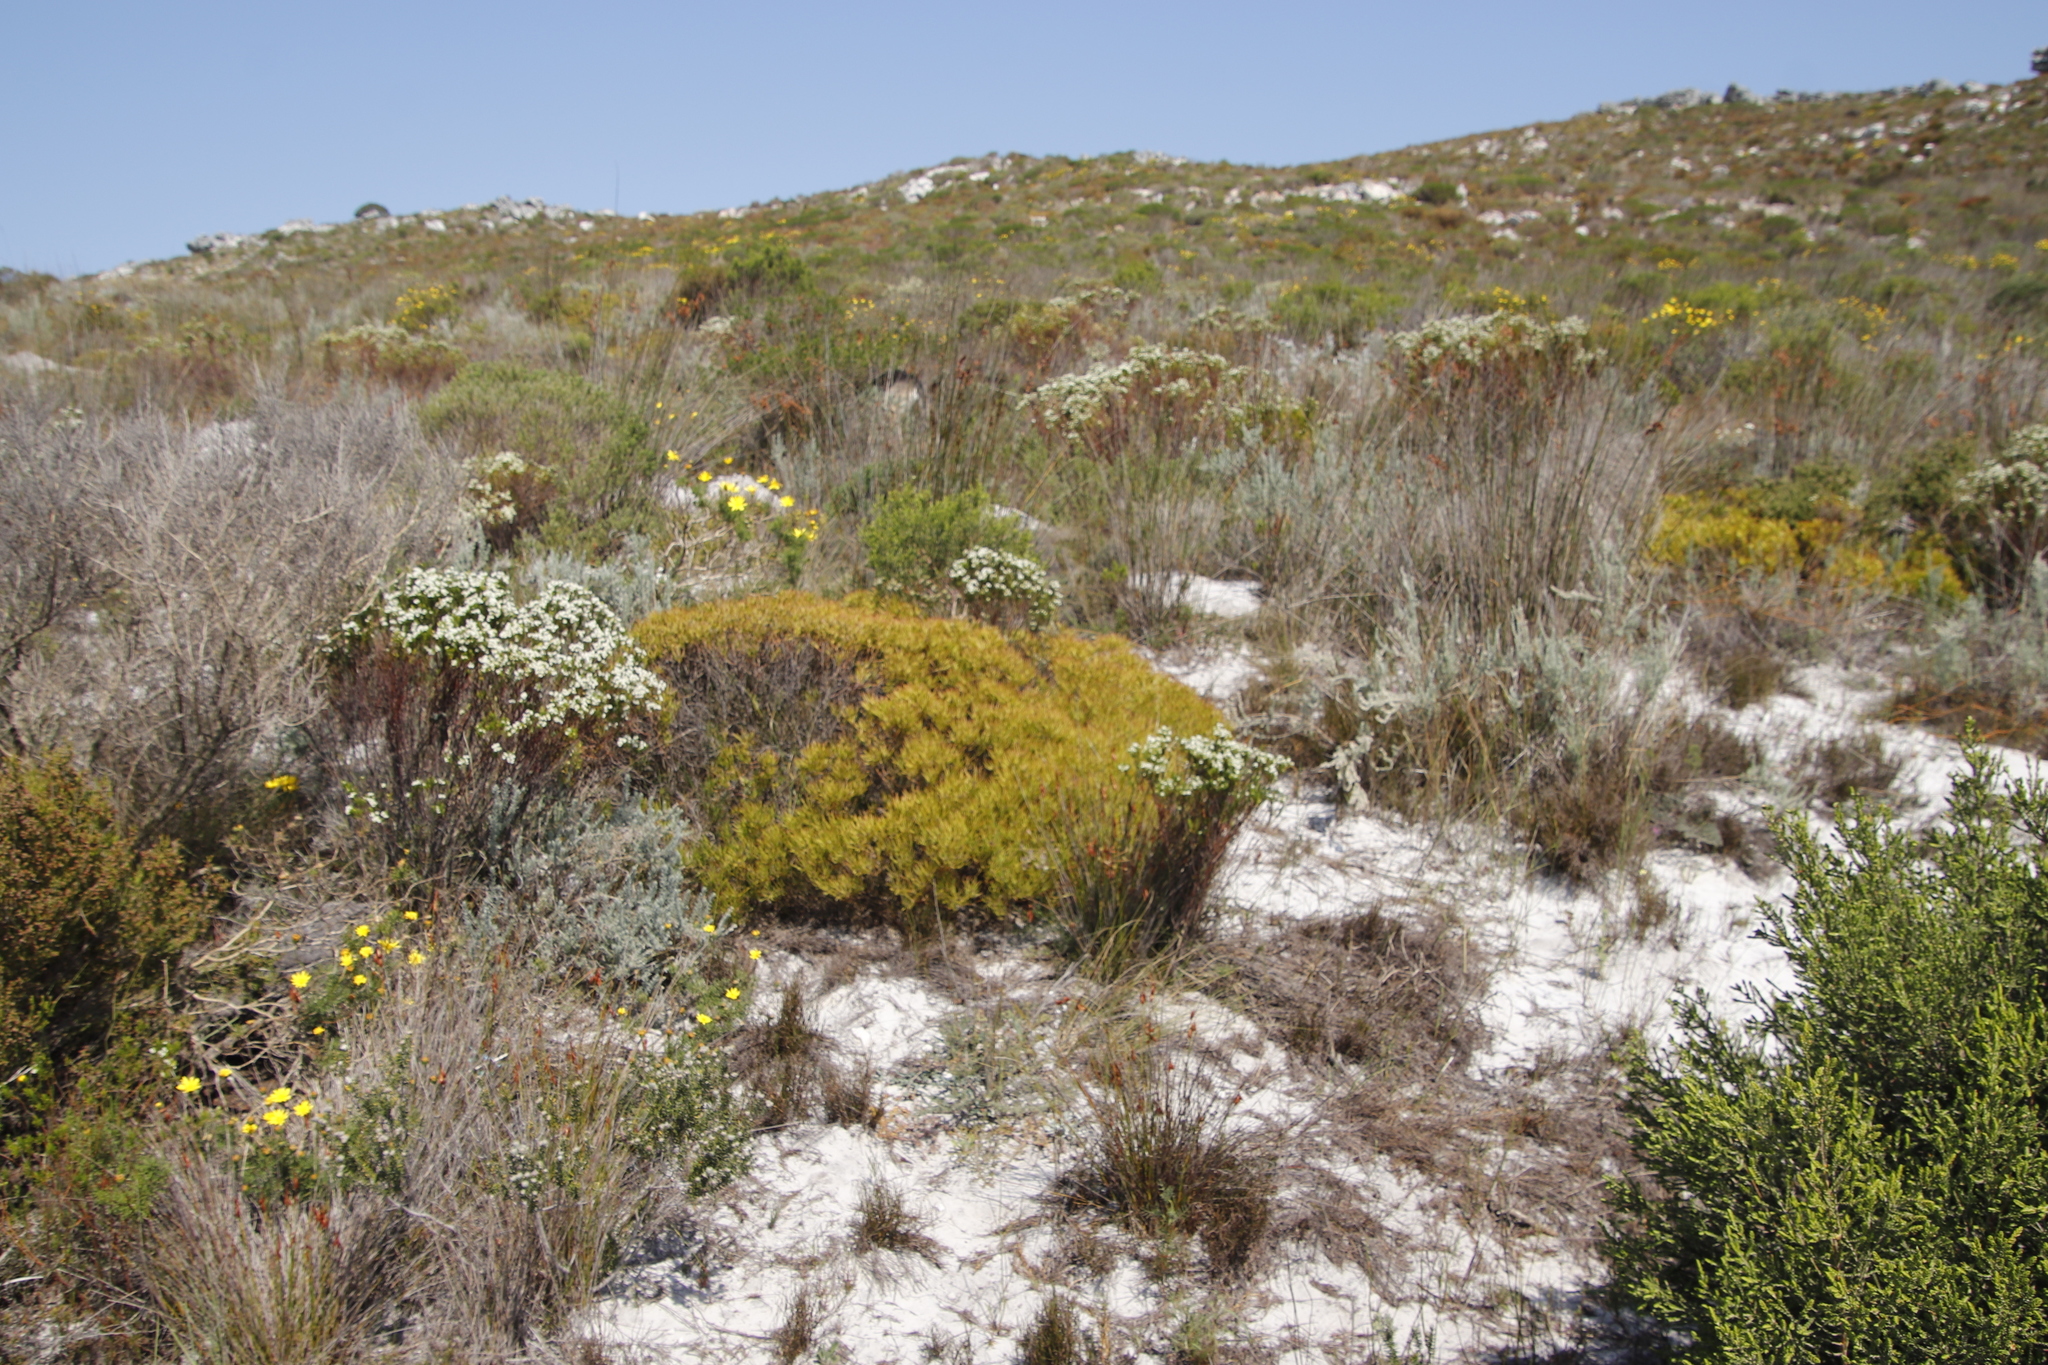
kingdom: Plantae
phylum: Tracheophyta
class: Magnoliopsida
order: Proteales
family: Proteaceae
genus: Leucadendron
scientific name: Leucadendron salignum
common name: Common sunshine conebush
